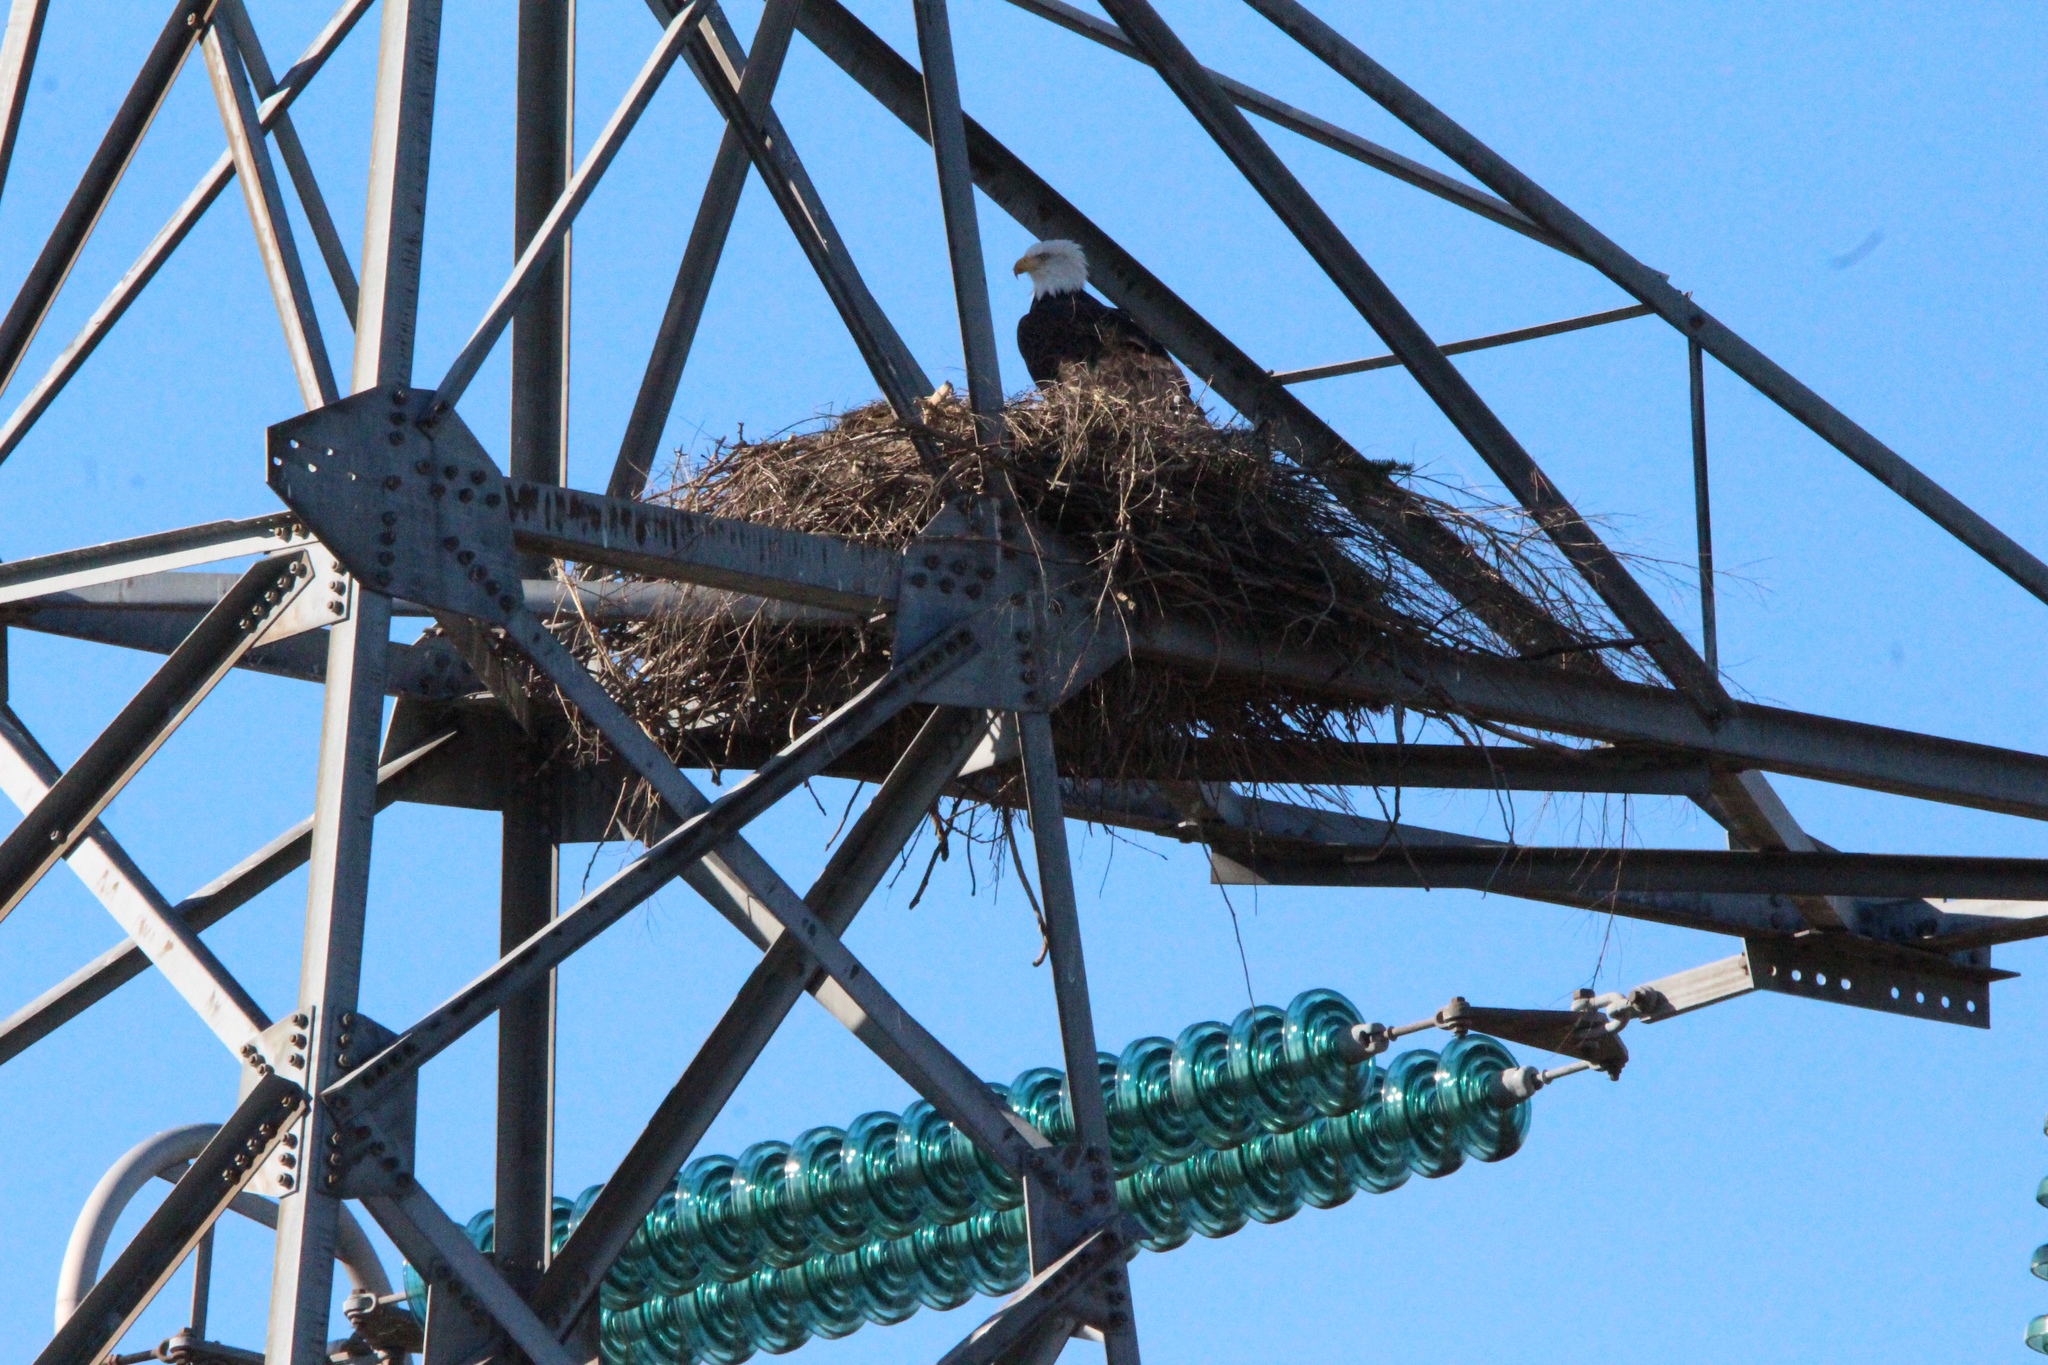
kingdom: Animalia
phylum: Chordata
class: Aves
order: Accipitriformes
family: Accipitridae
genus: Haliaeetus
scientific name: Haliaeetus leucocephalus
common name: Bald eagle
